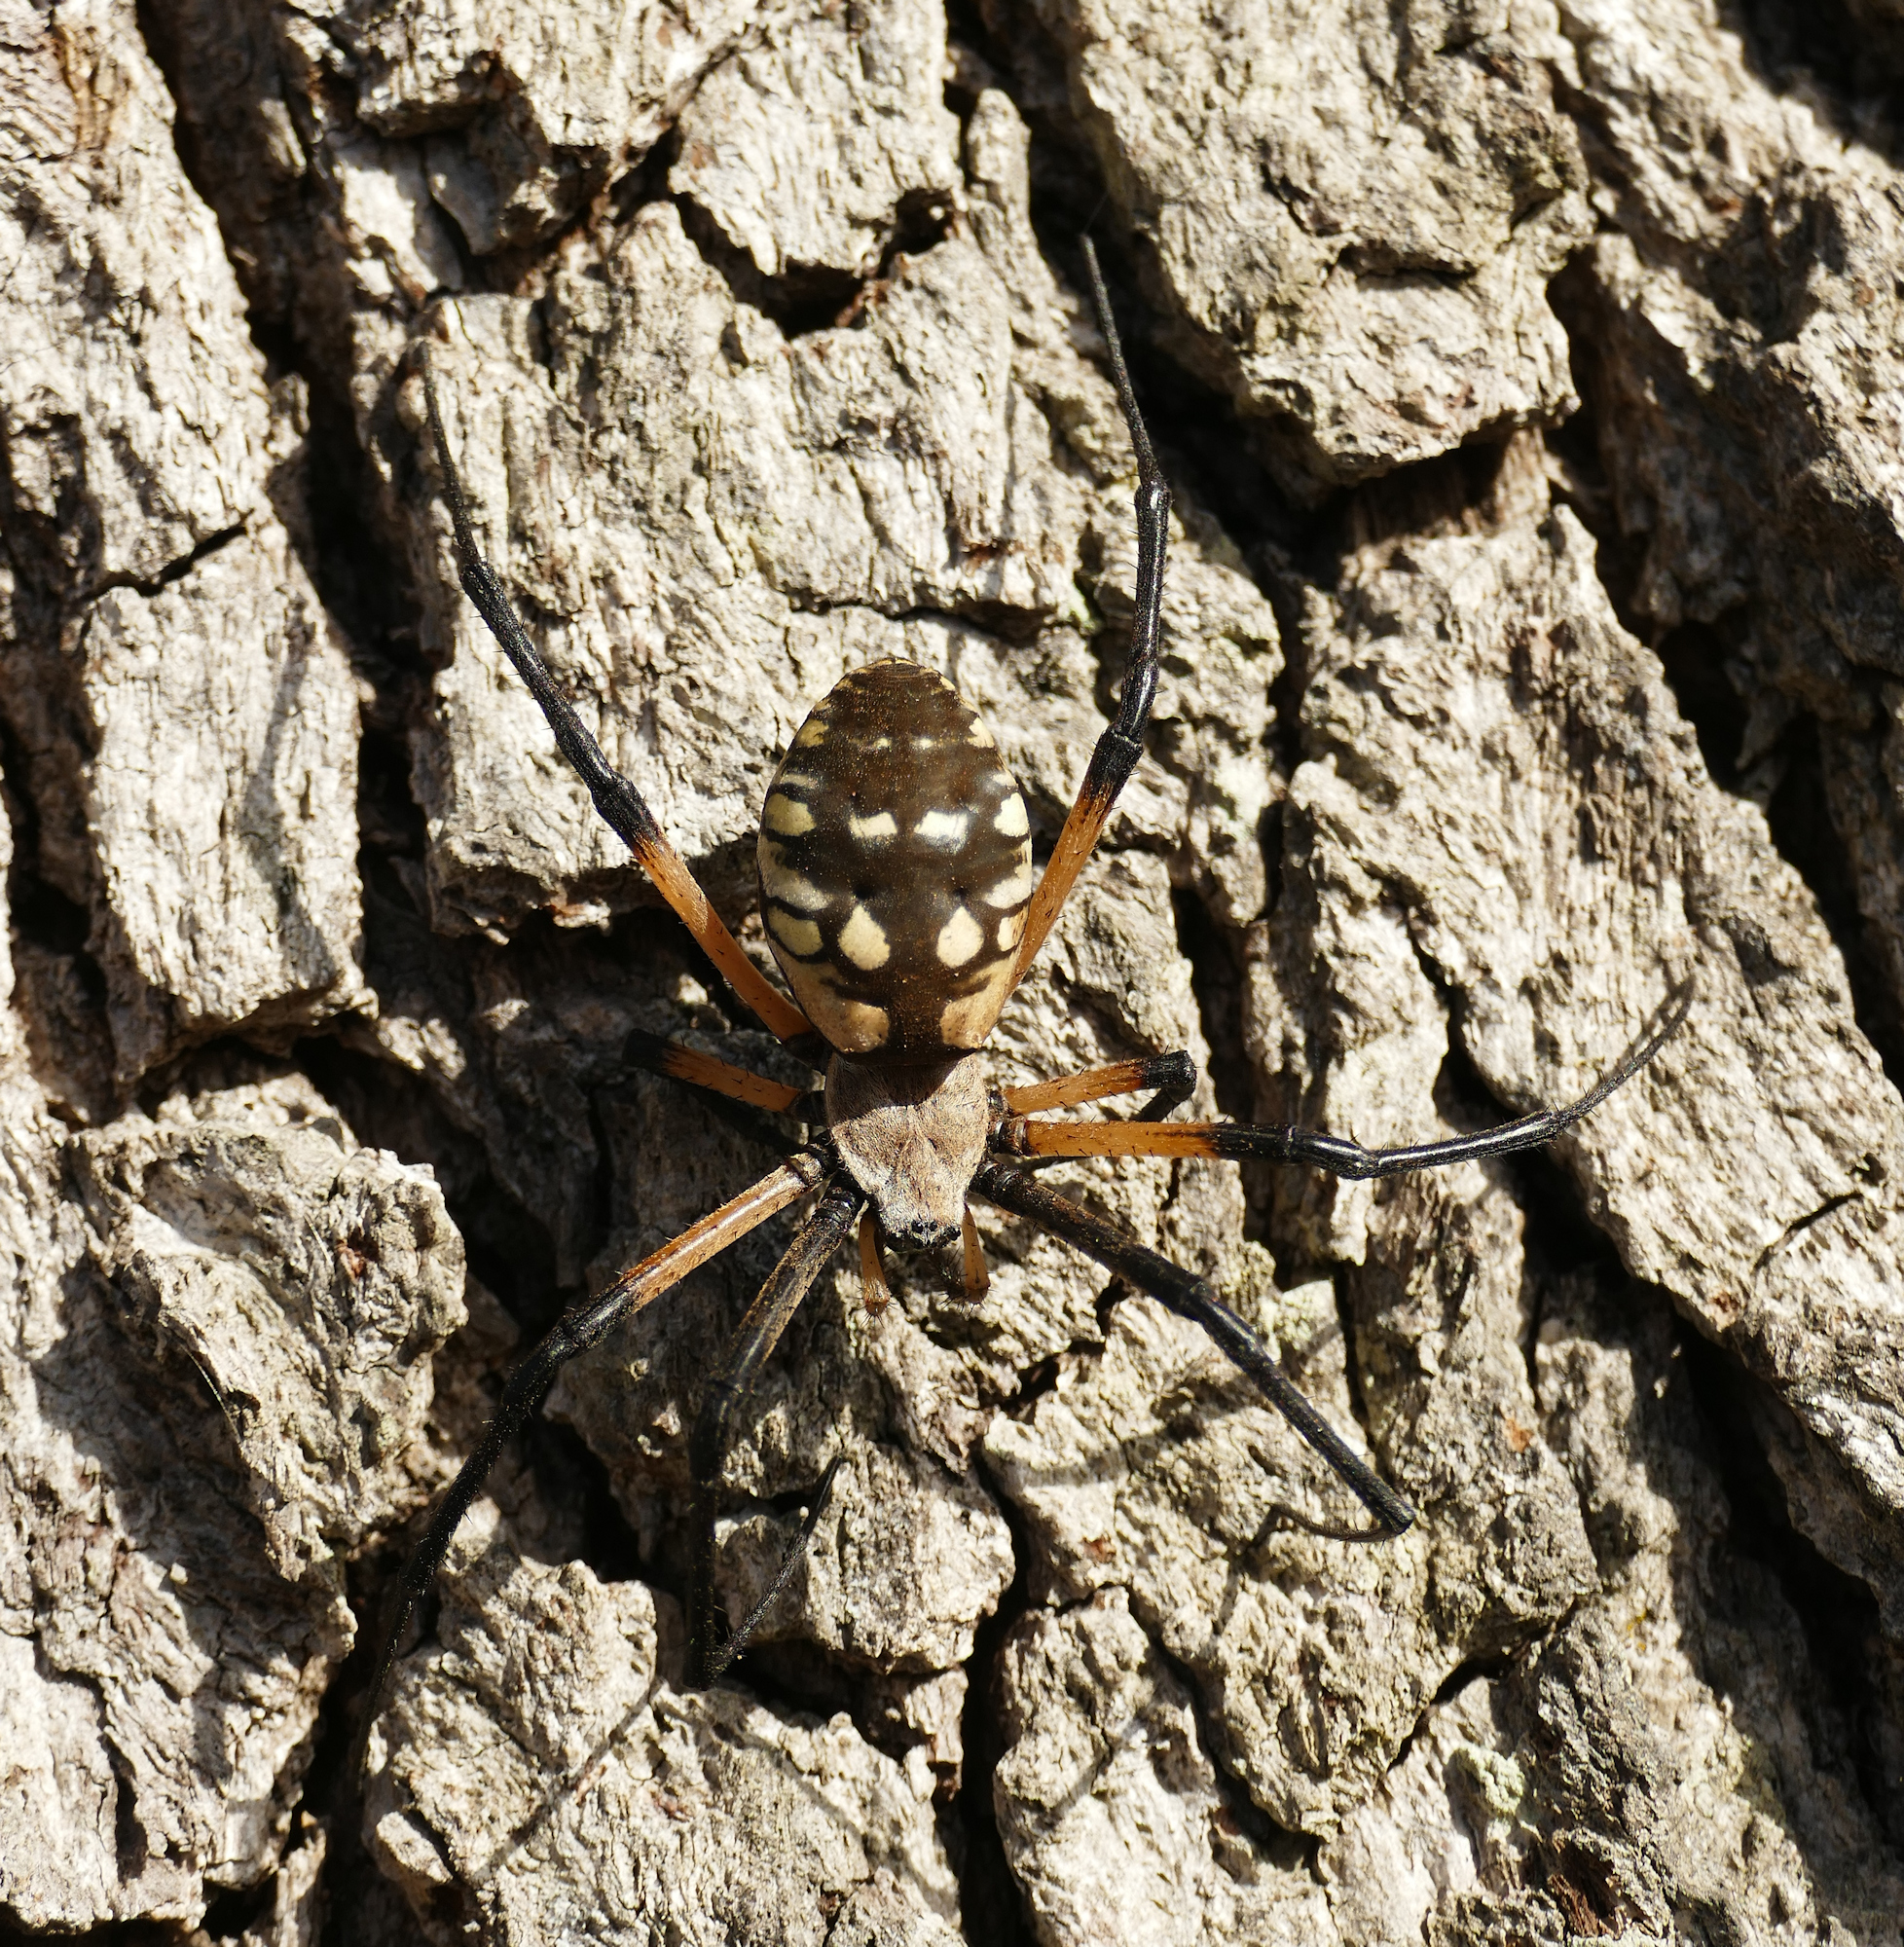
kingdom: Animalia
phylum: Arthropoda
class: Arachnida
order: Araneae
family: Araneidae
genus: Argiope
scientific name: Argiope aurantia
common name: Orb weavers
